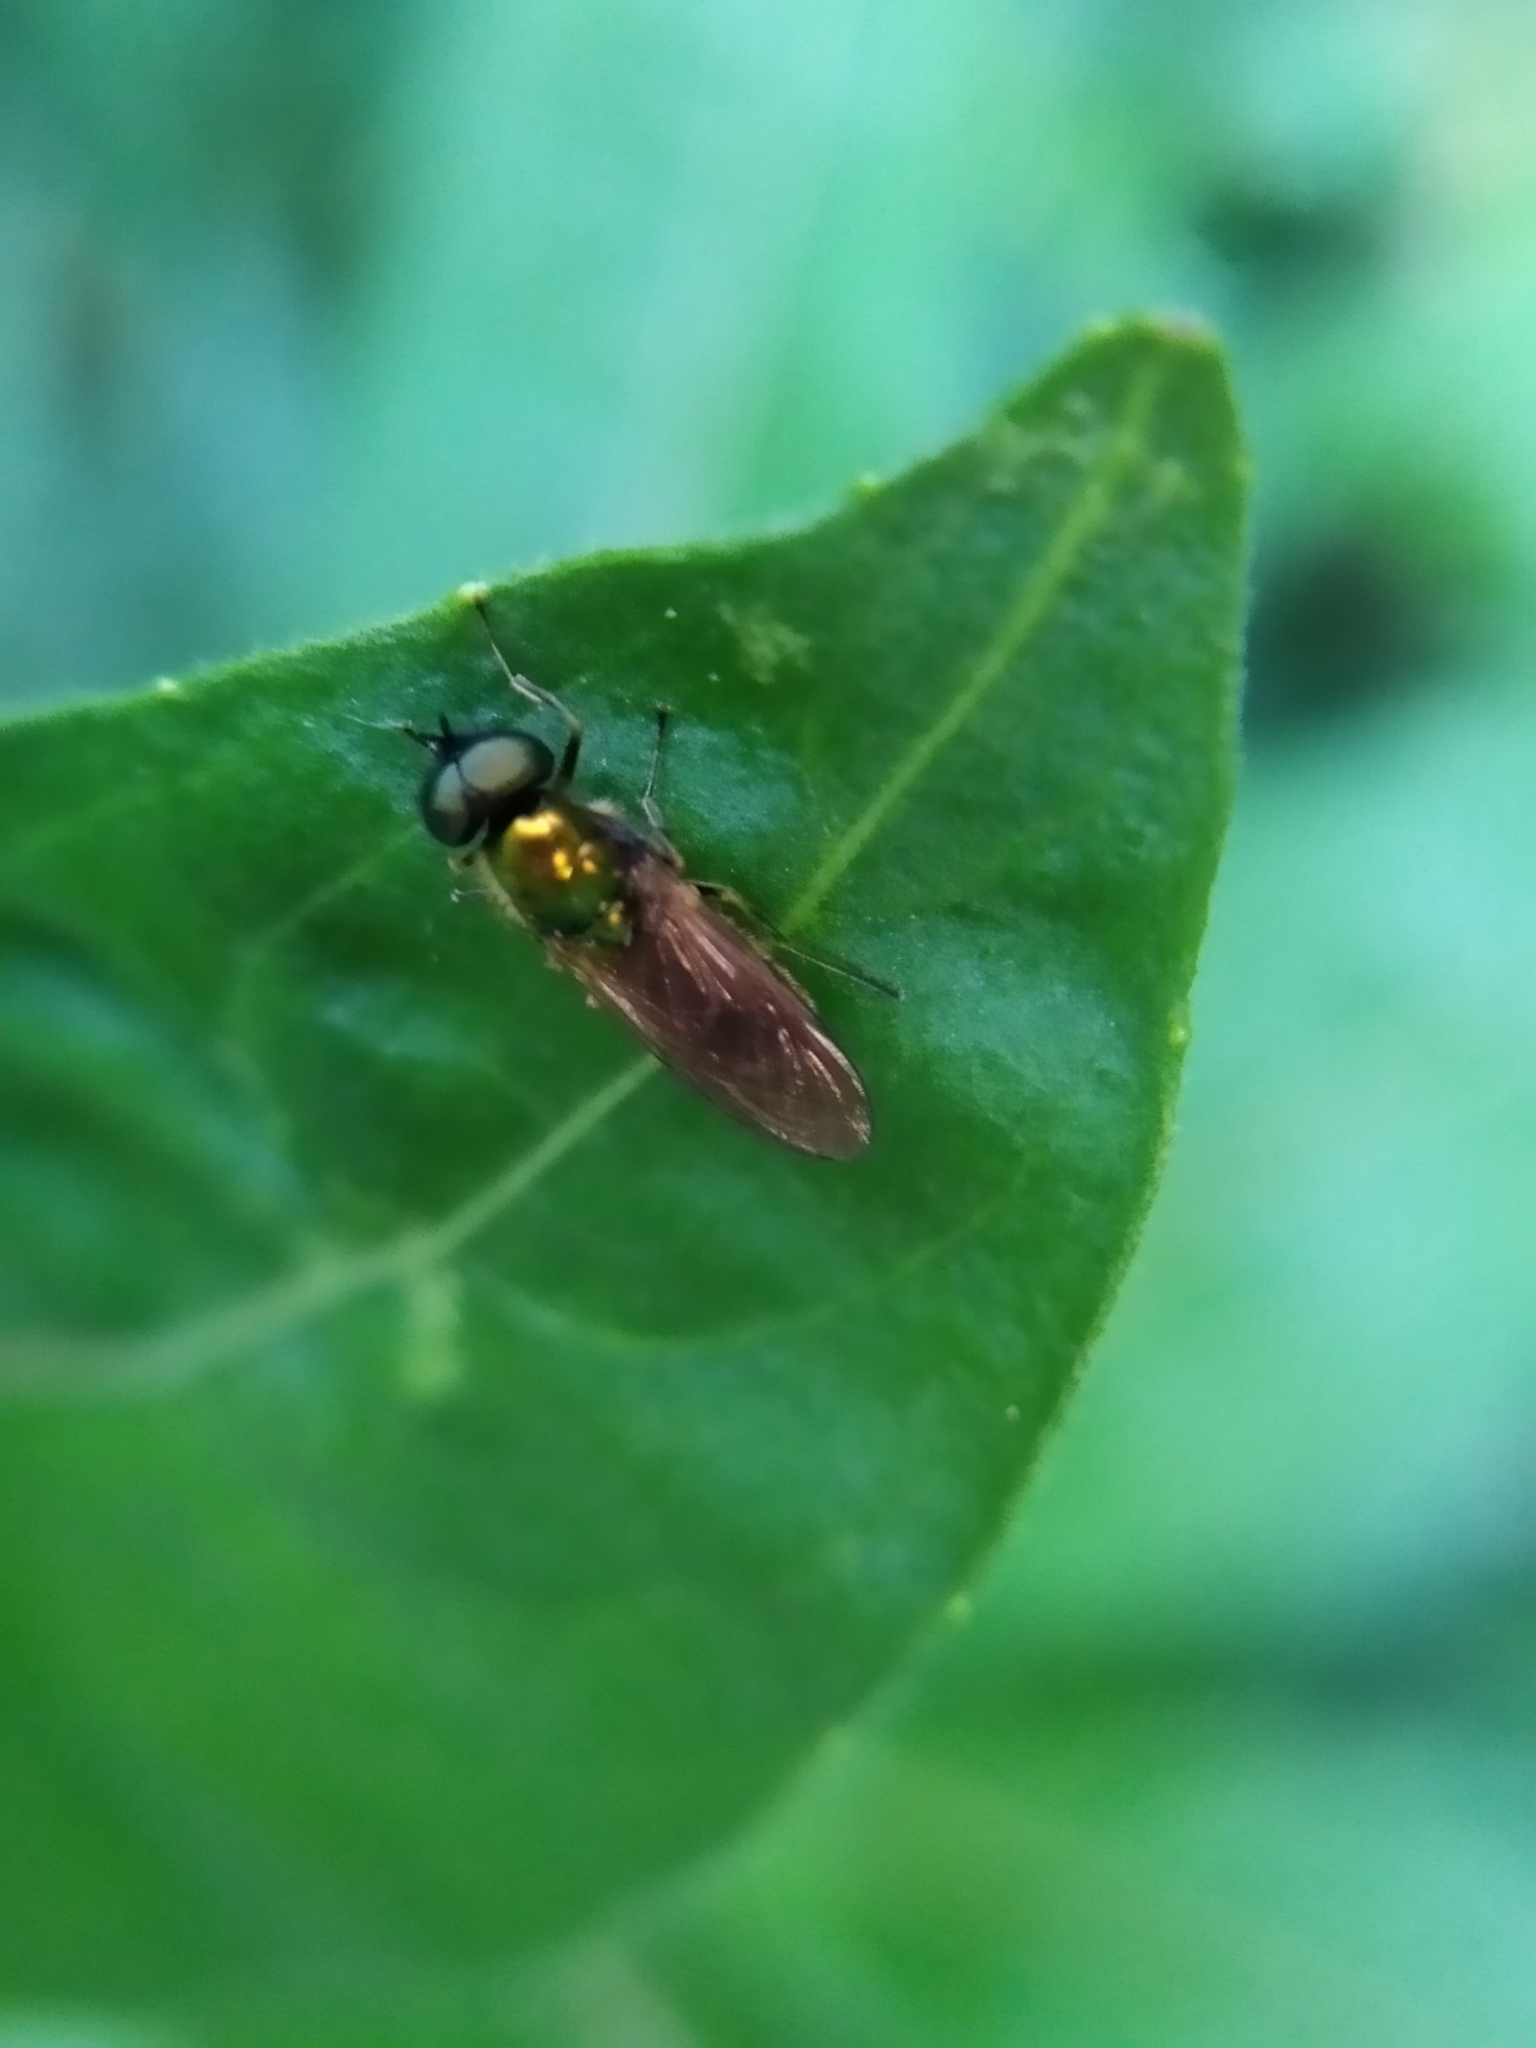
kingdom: Animalia
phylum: Arthropoda
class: Insecta
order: Diptera
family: Stratiomyidae
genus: Chloromyia
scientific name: Chloromyia formosa
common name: Soldier fly
